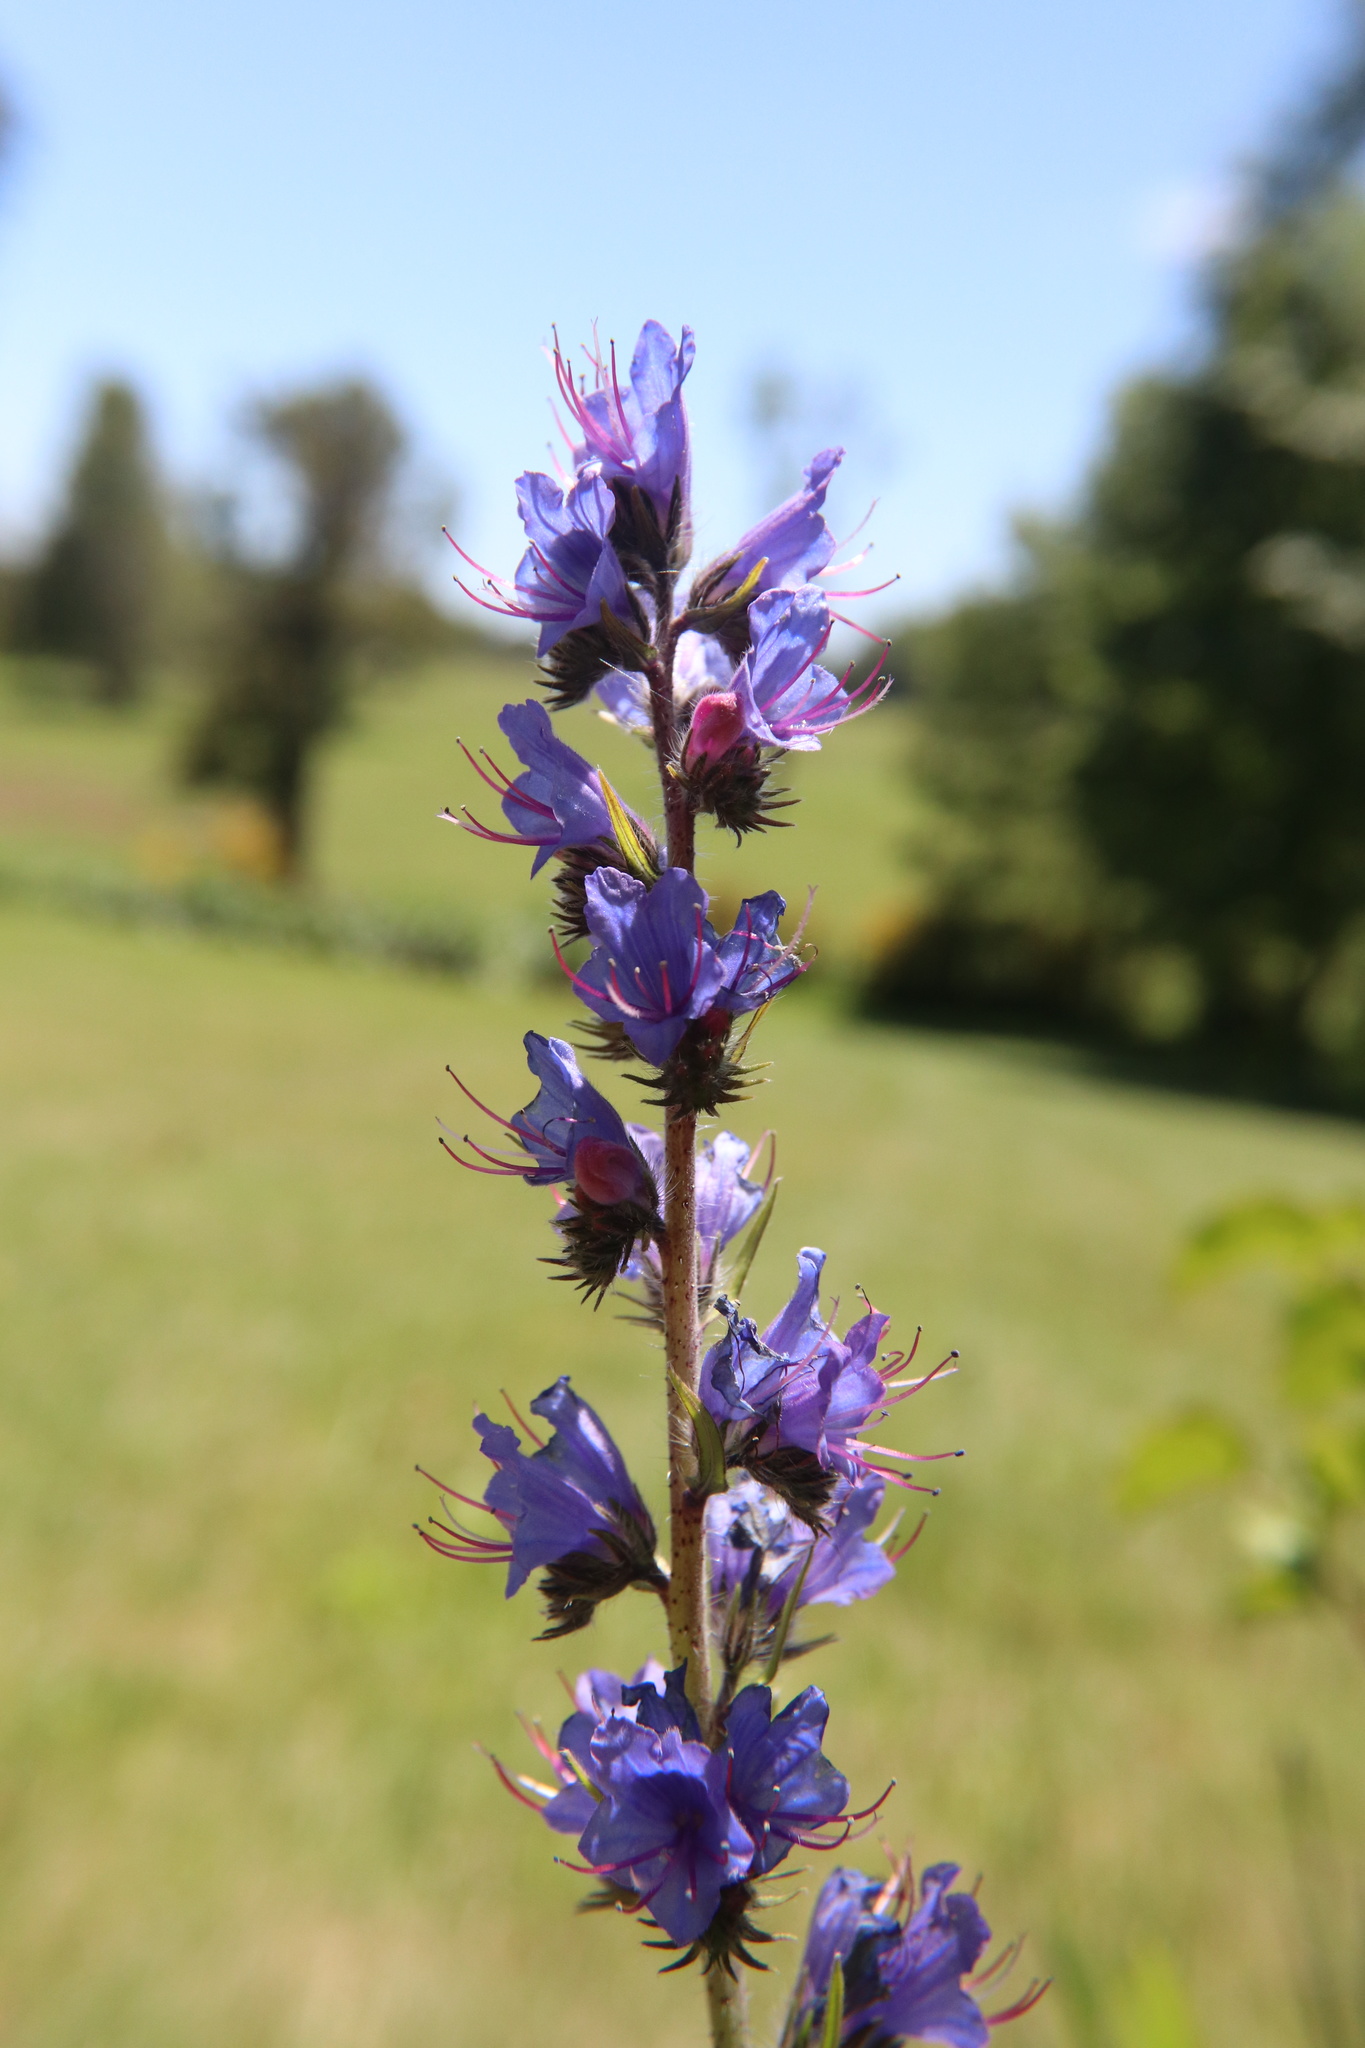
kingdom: Plantae
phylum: Tracheophyta
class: Magnoliopsida
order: Boraginales
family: Boraginaceae
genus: Echium
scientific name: Echium vulgare
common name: Common viper's bugloss
